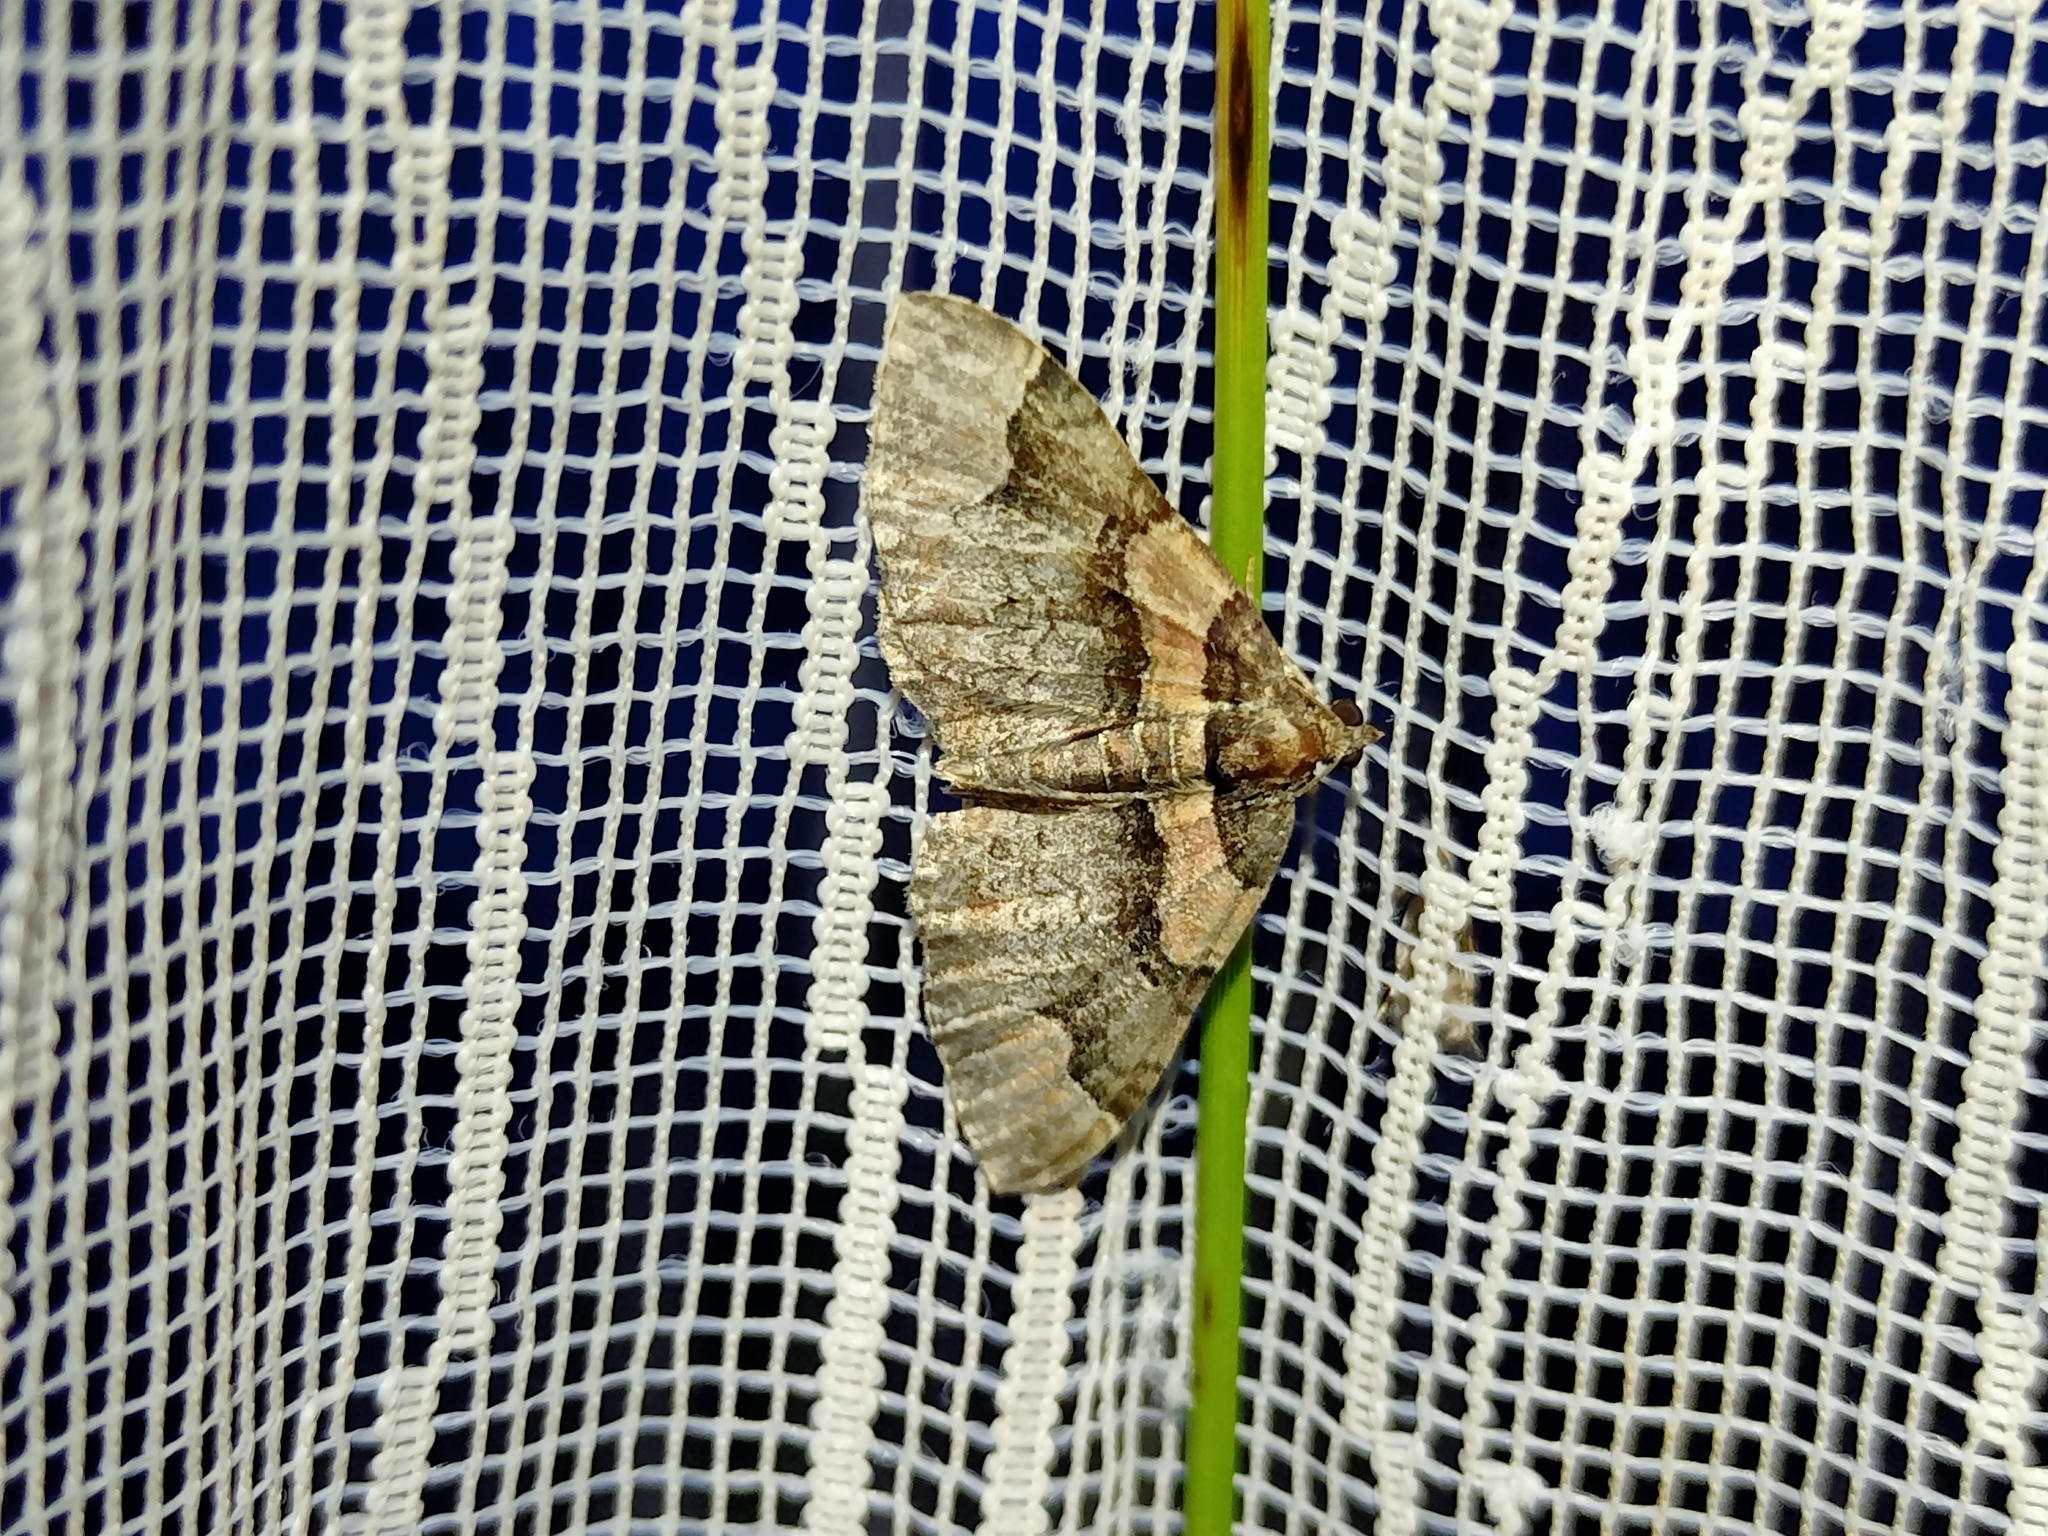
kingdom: Animalia
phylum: Arthropoda
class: Insecta
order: Lepidoptera
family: Geometridae
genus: Catarhoe
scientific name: Catarhoe rubidata
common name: Ruddy carpet
